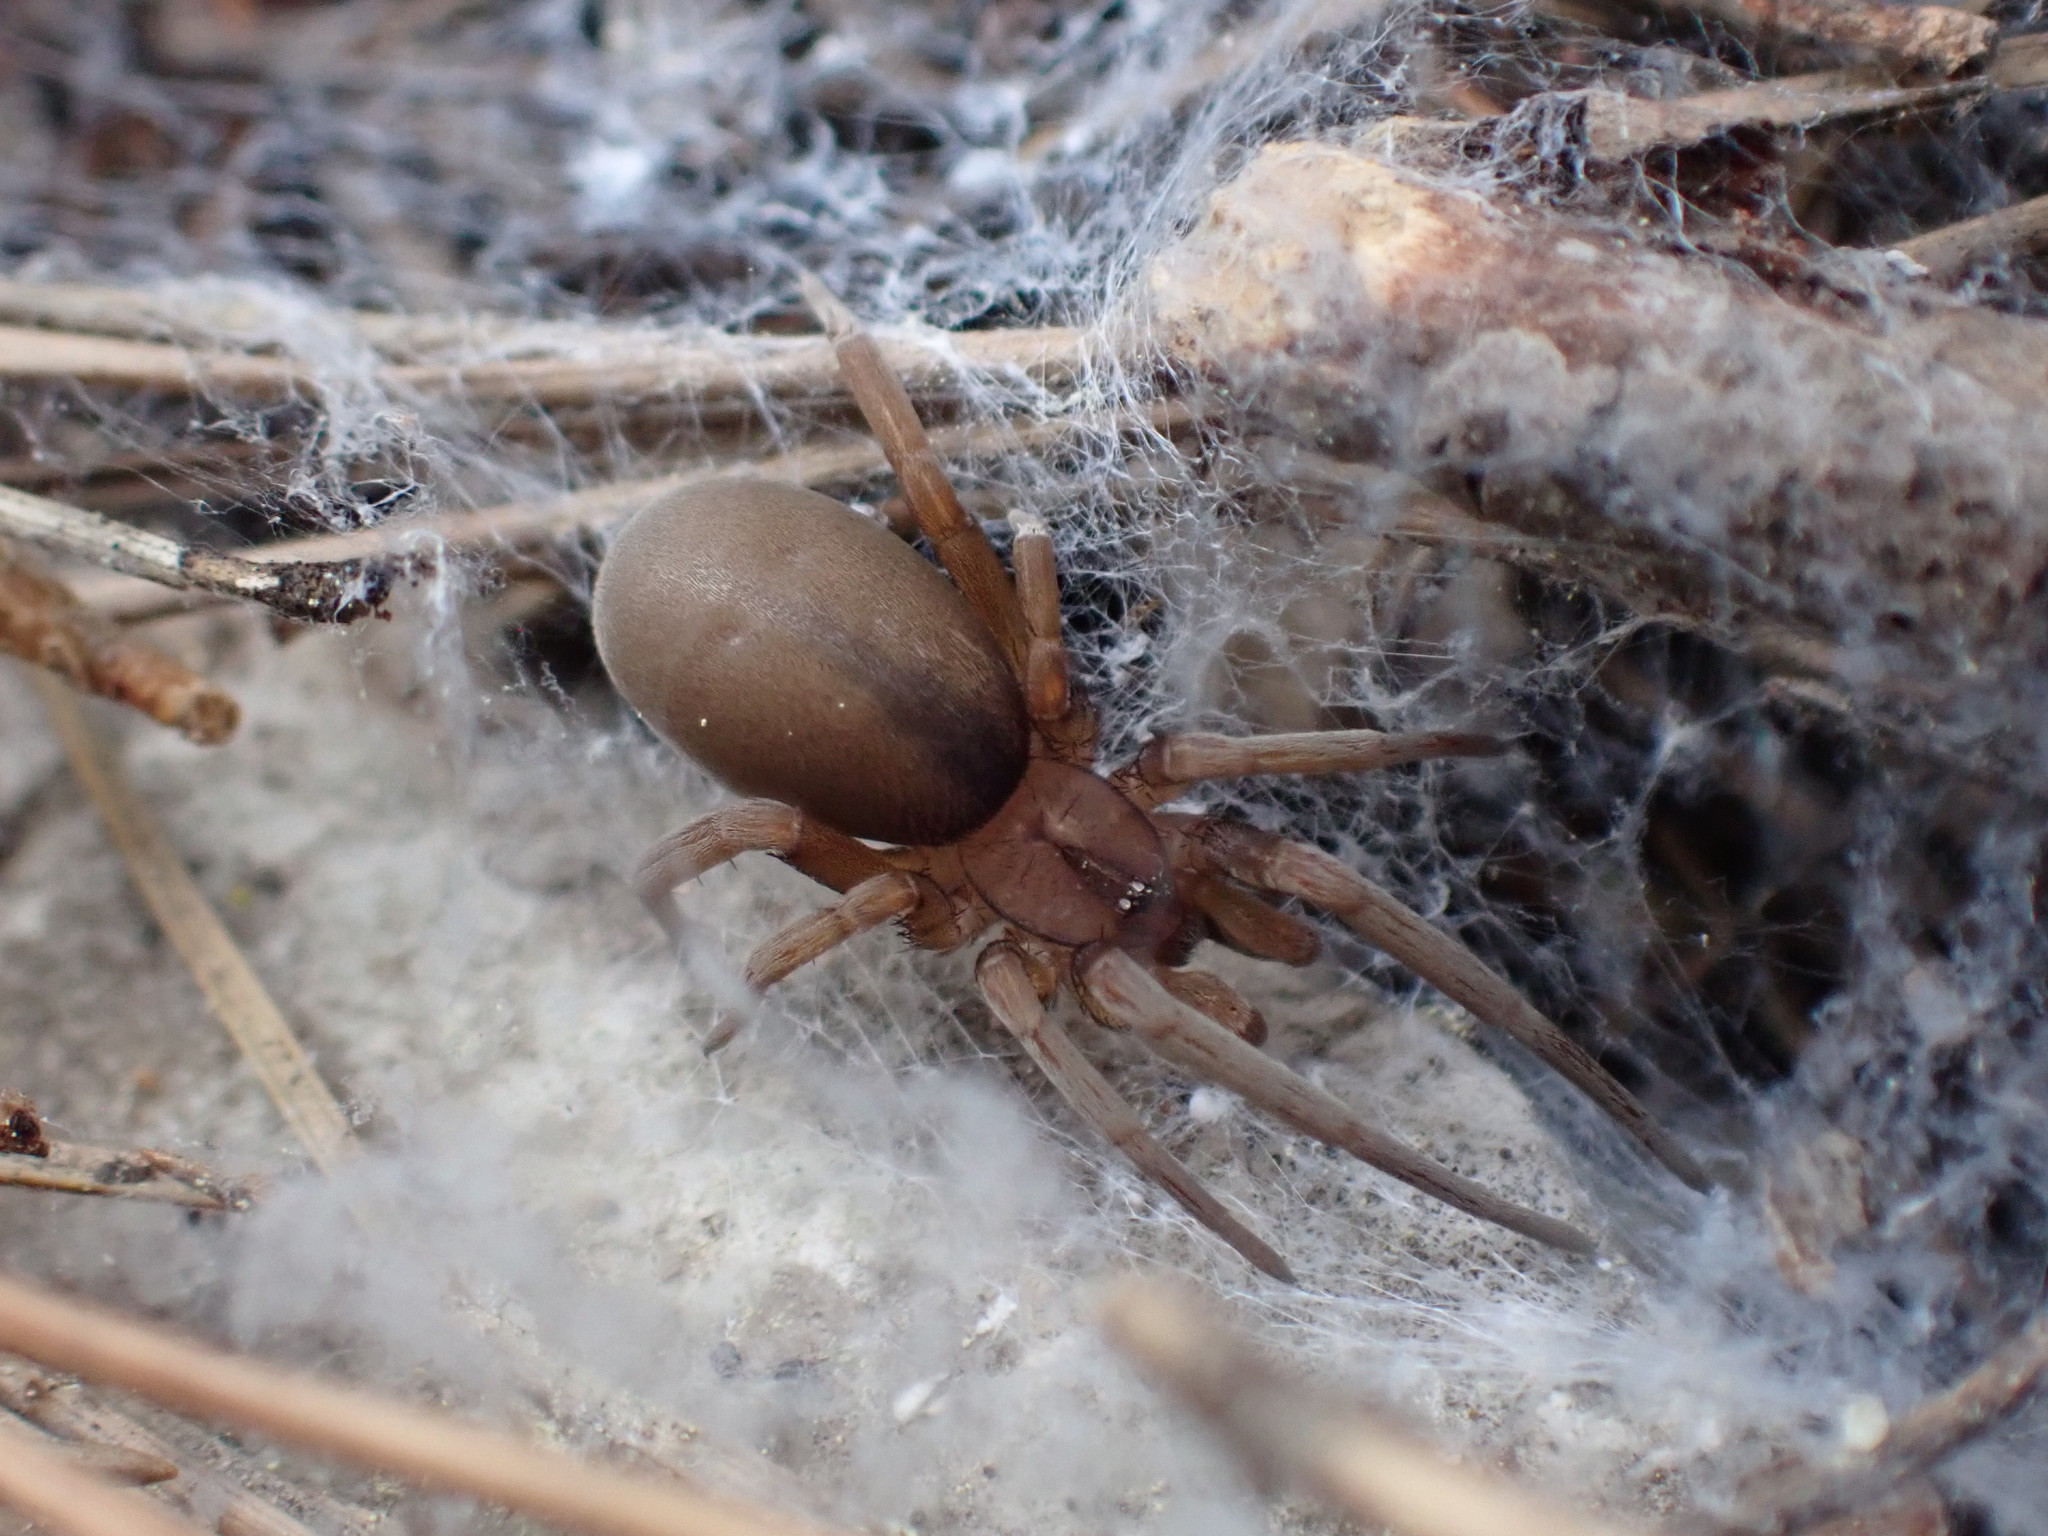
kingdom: Animalia
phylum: Arthropoda
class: Arachnida
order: Araneae
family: Filistatidae
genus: Filistata
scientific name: Filistata insidiatrix
